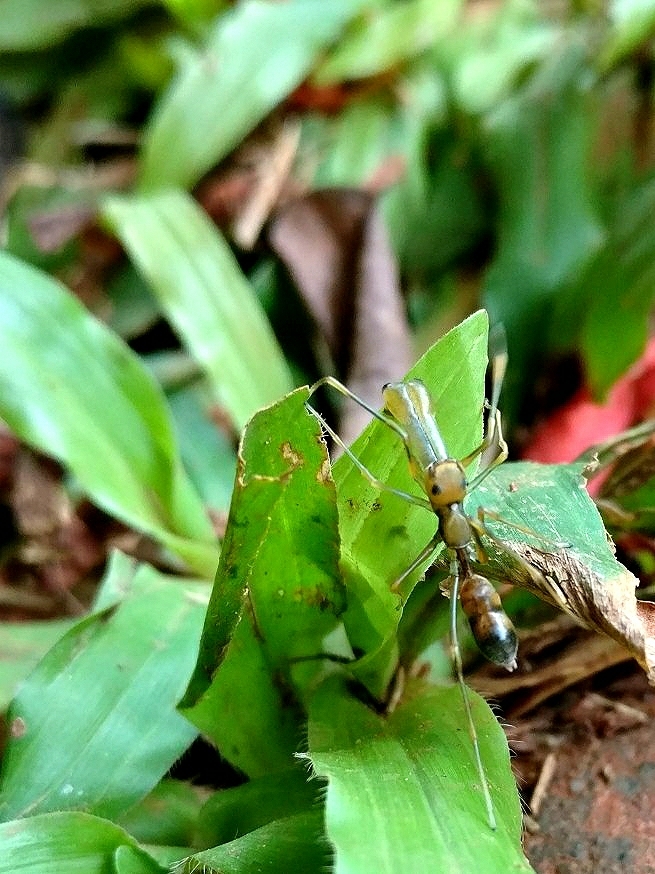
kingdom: Animalia
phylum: Arthropoda
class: Arachnida
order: Araneae
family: Salticidae
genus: Myrmaplata
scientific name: Myrmaplata plataleoides
